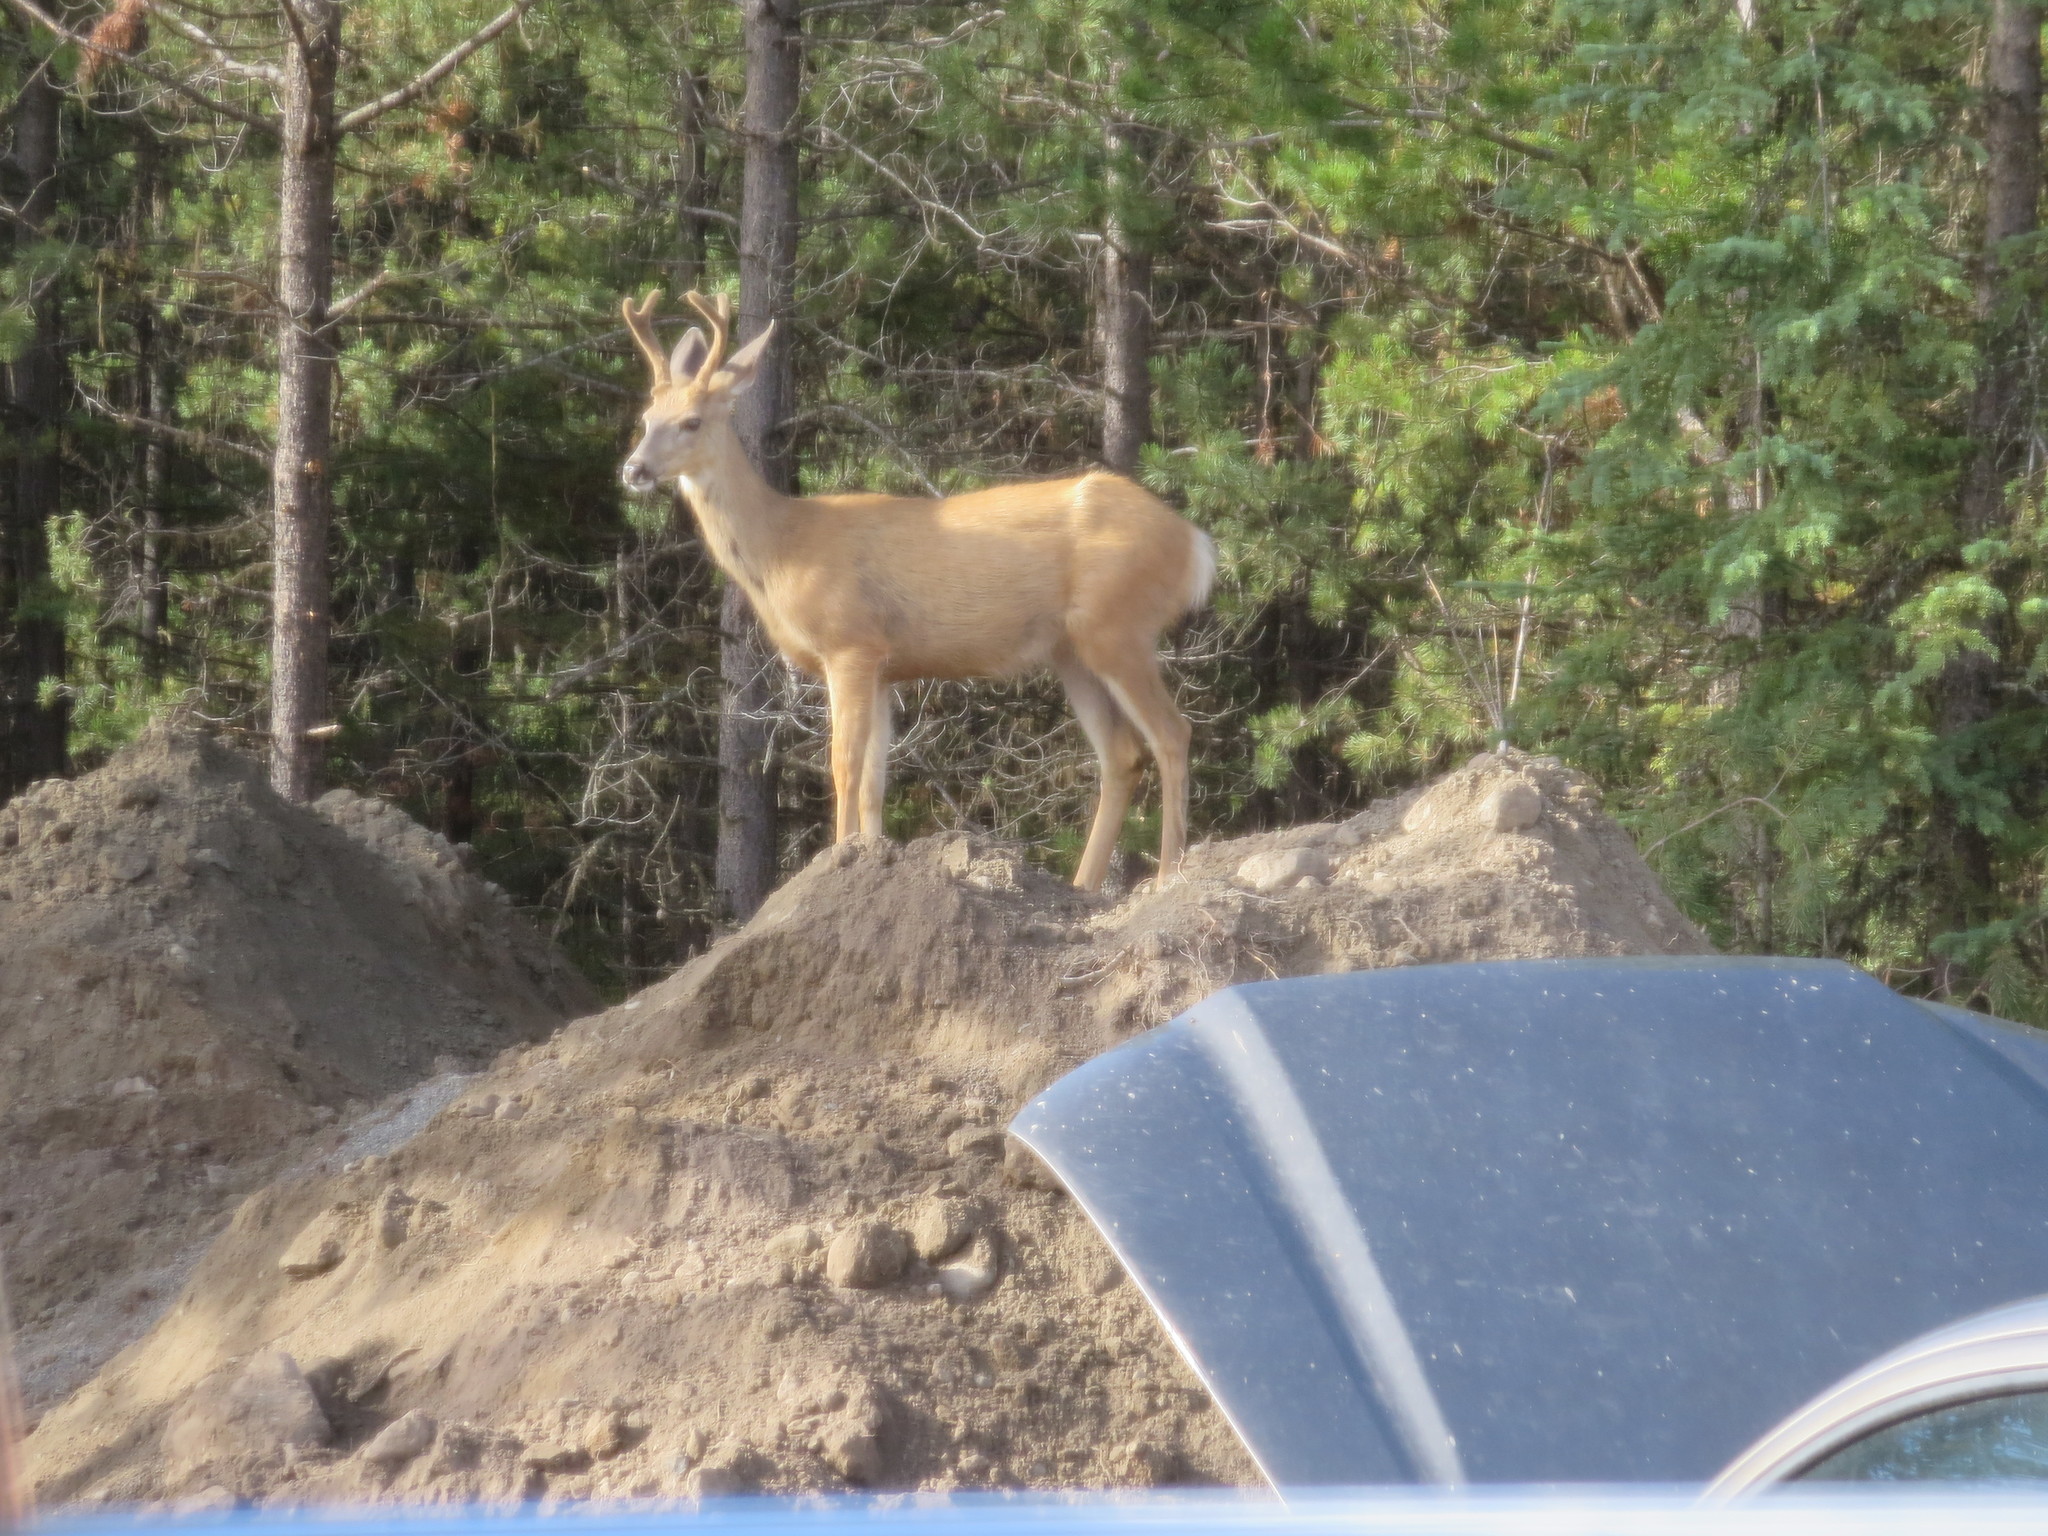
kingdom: Animalia
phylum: Chordata
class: Mammalia
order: Artiodactyla
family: Cervidae
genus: Odocoileus
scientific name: Odocoileus hemionus
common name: Mule deer
